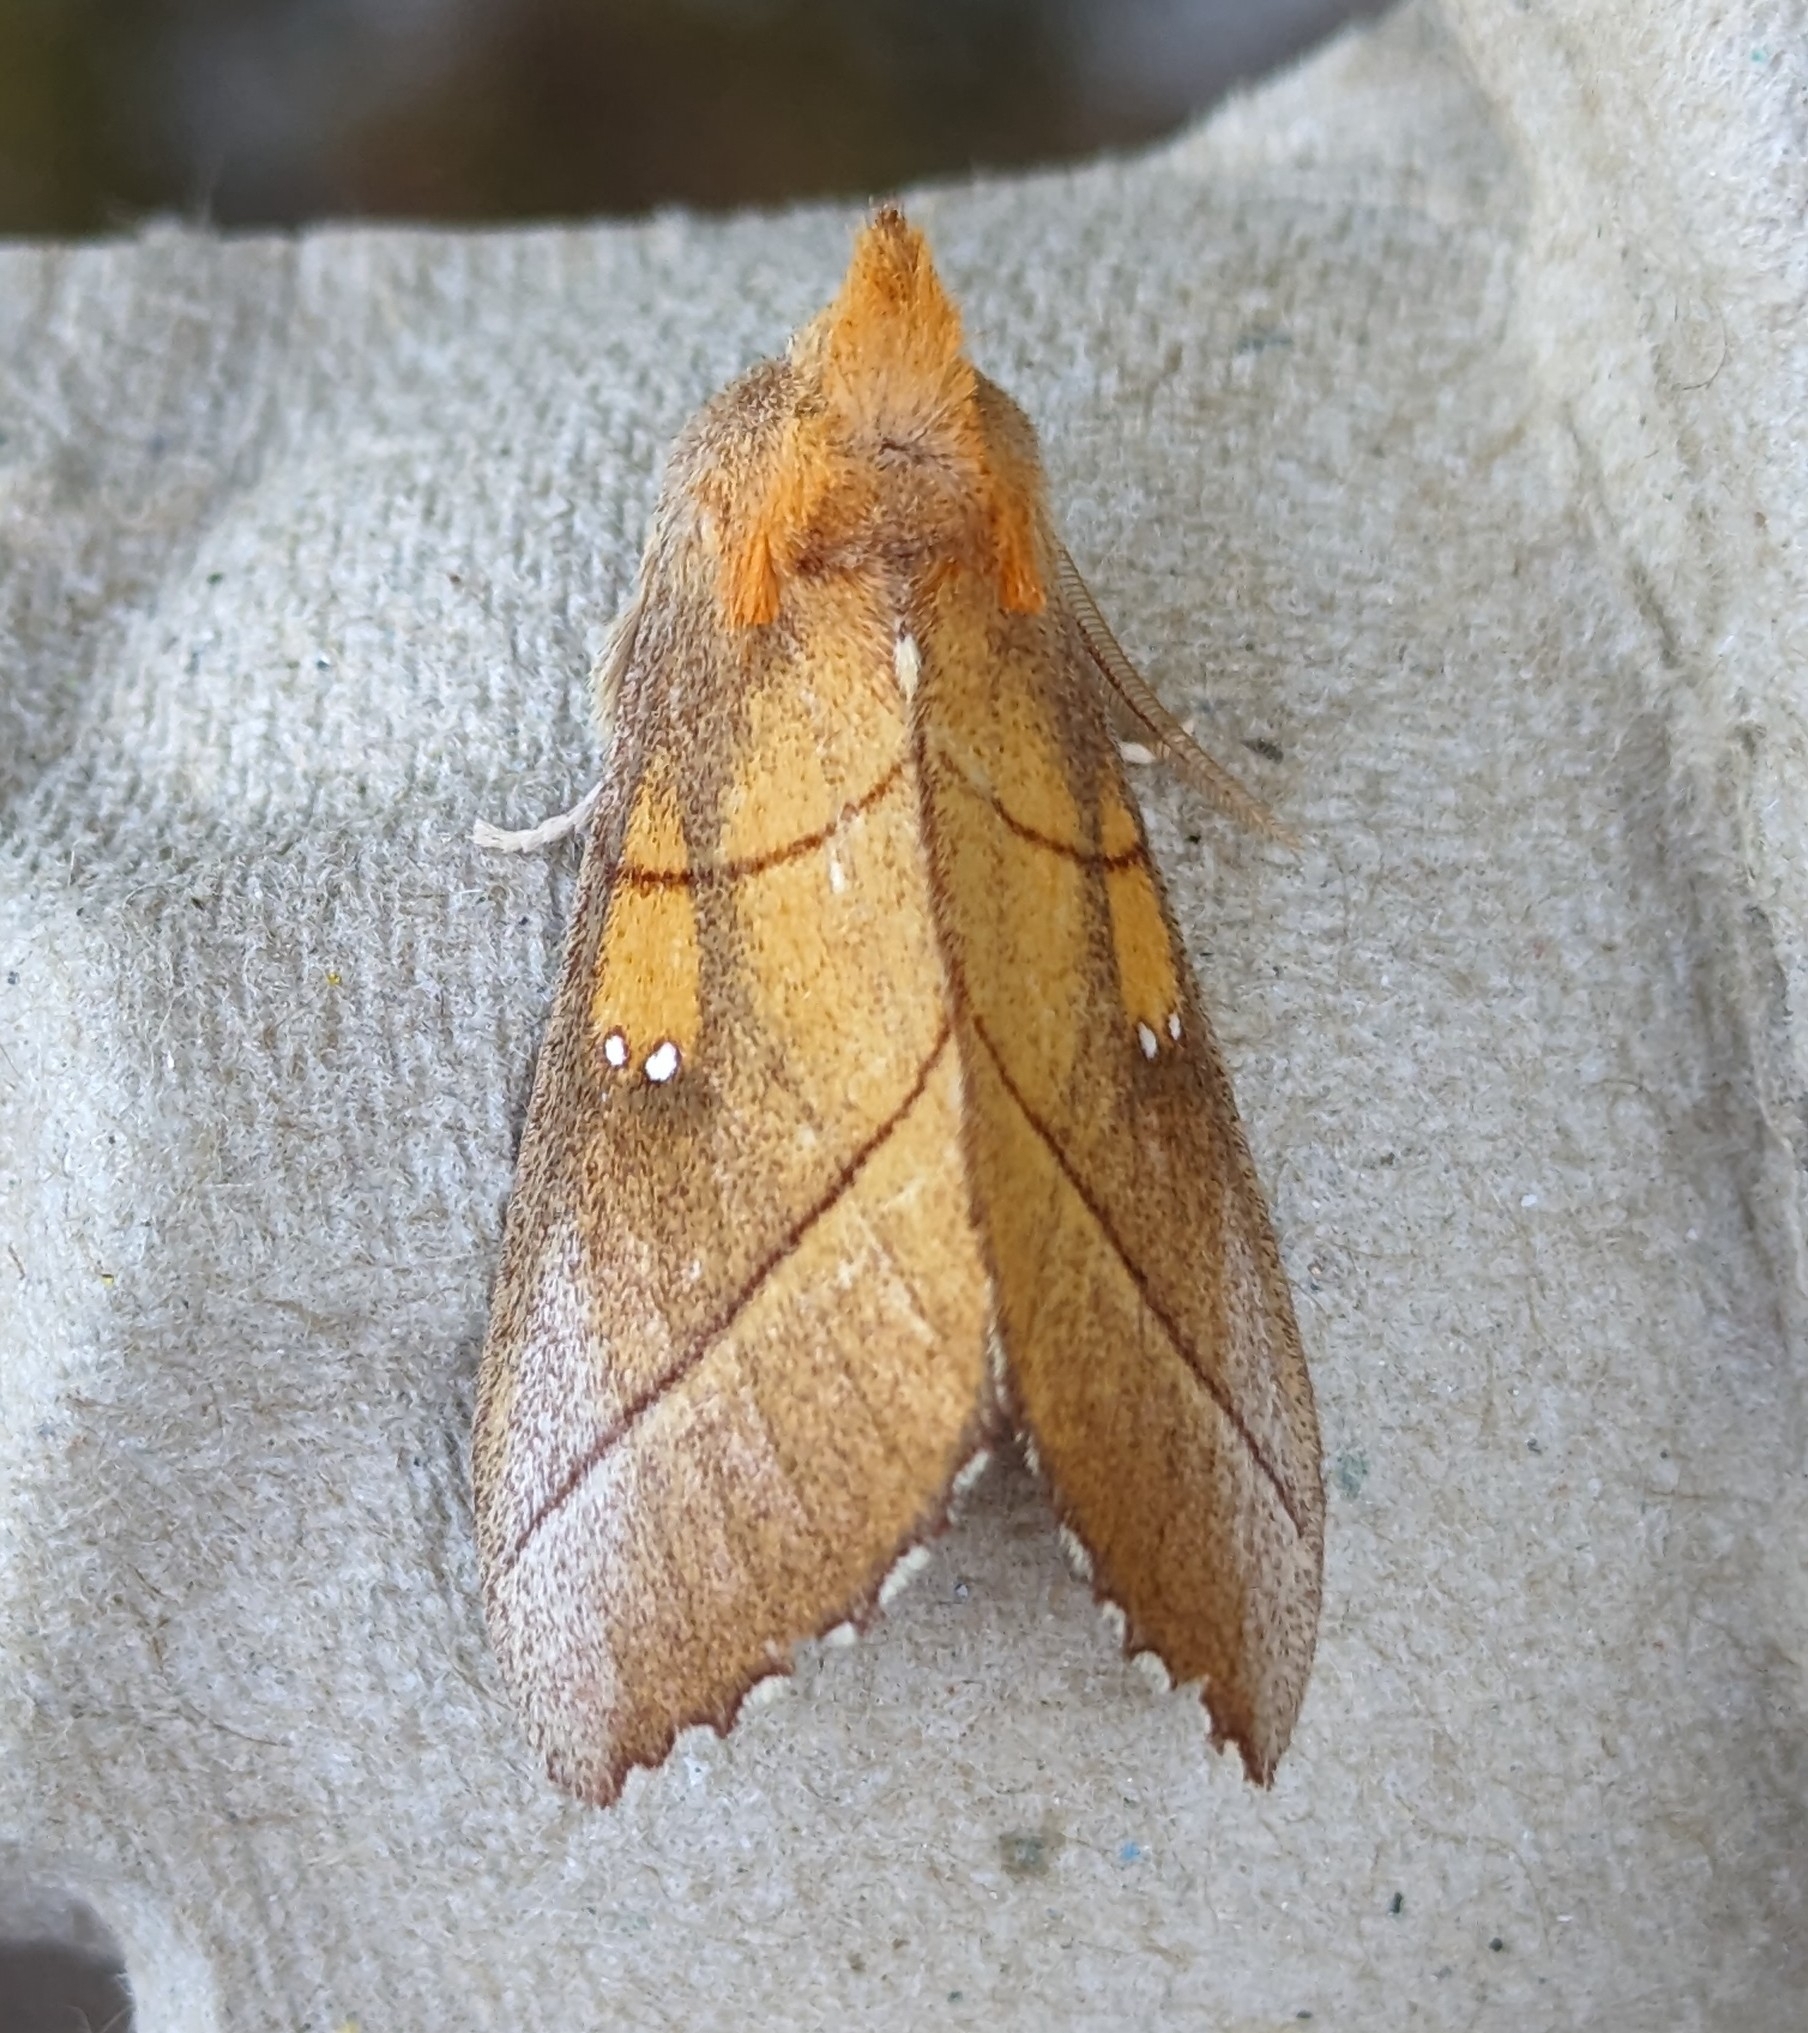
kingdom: Animalia
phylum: Arthropoda
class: Insecta
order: Lepidoptera
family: Notodontidae
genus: Nadata
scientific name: Nadata gibbosa
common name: White-dotted prominent
